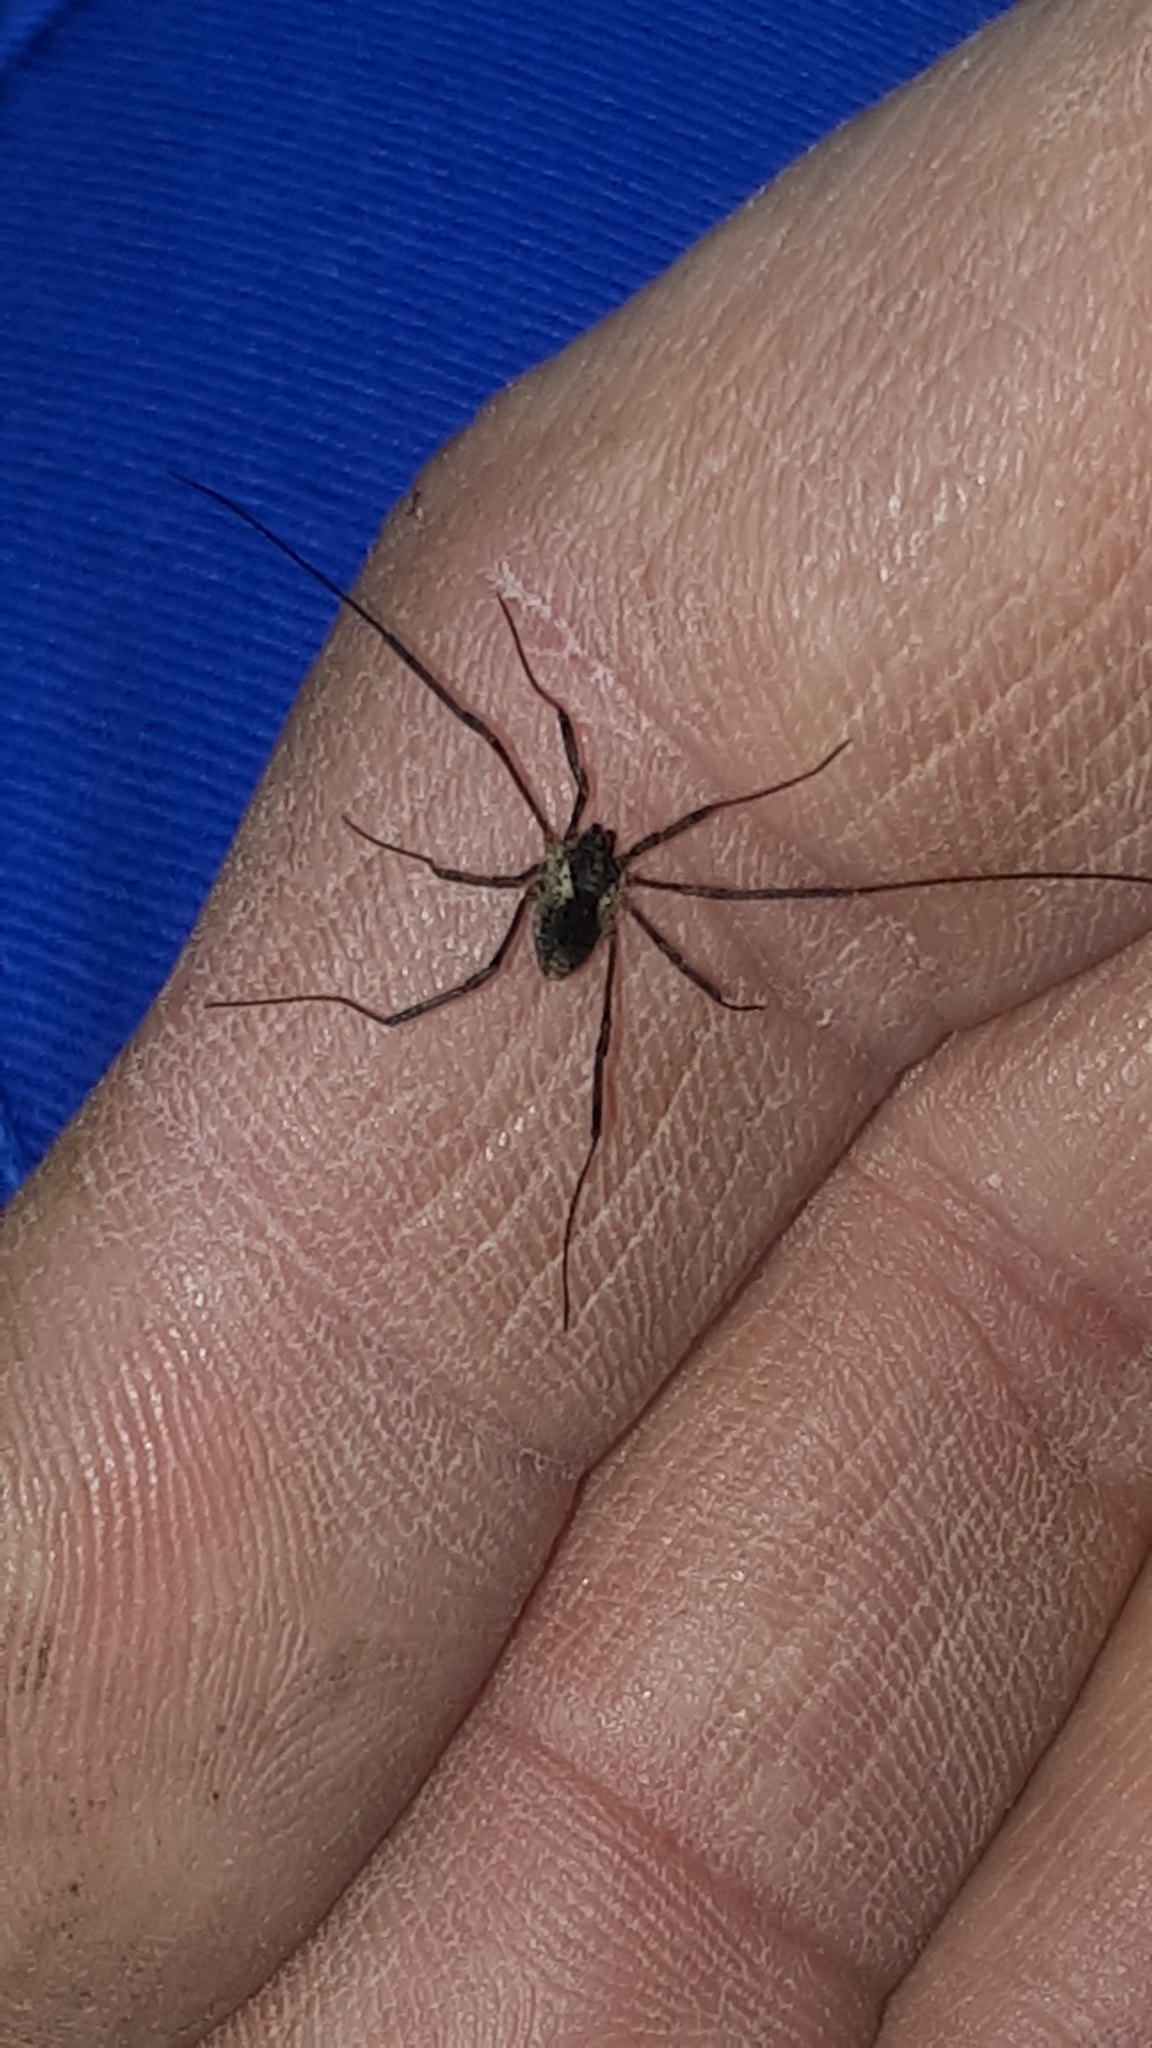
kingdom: Animalia
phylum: Arthropoda
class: Arachnida
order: Opiliones
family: Phalangiidae
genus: Mitopus
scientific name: Mitopus morio
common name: Saddleback harvestman
